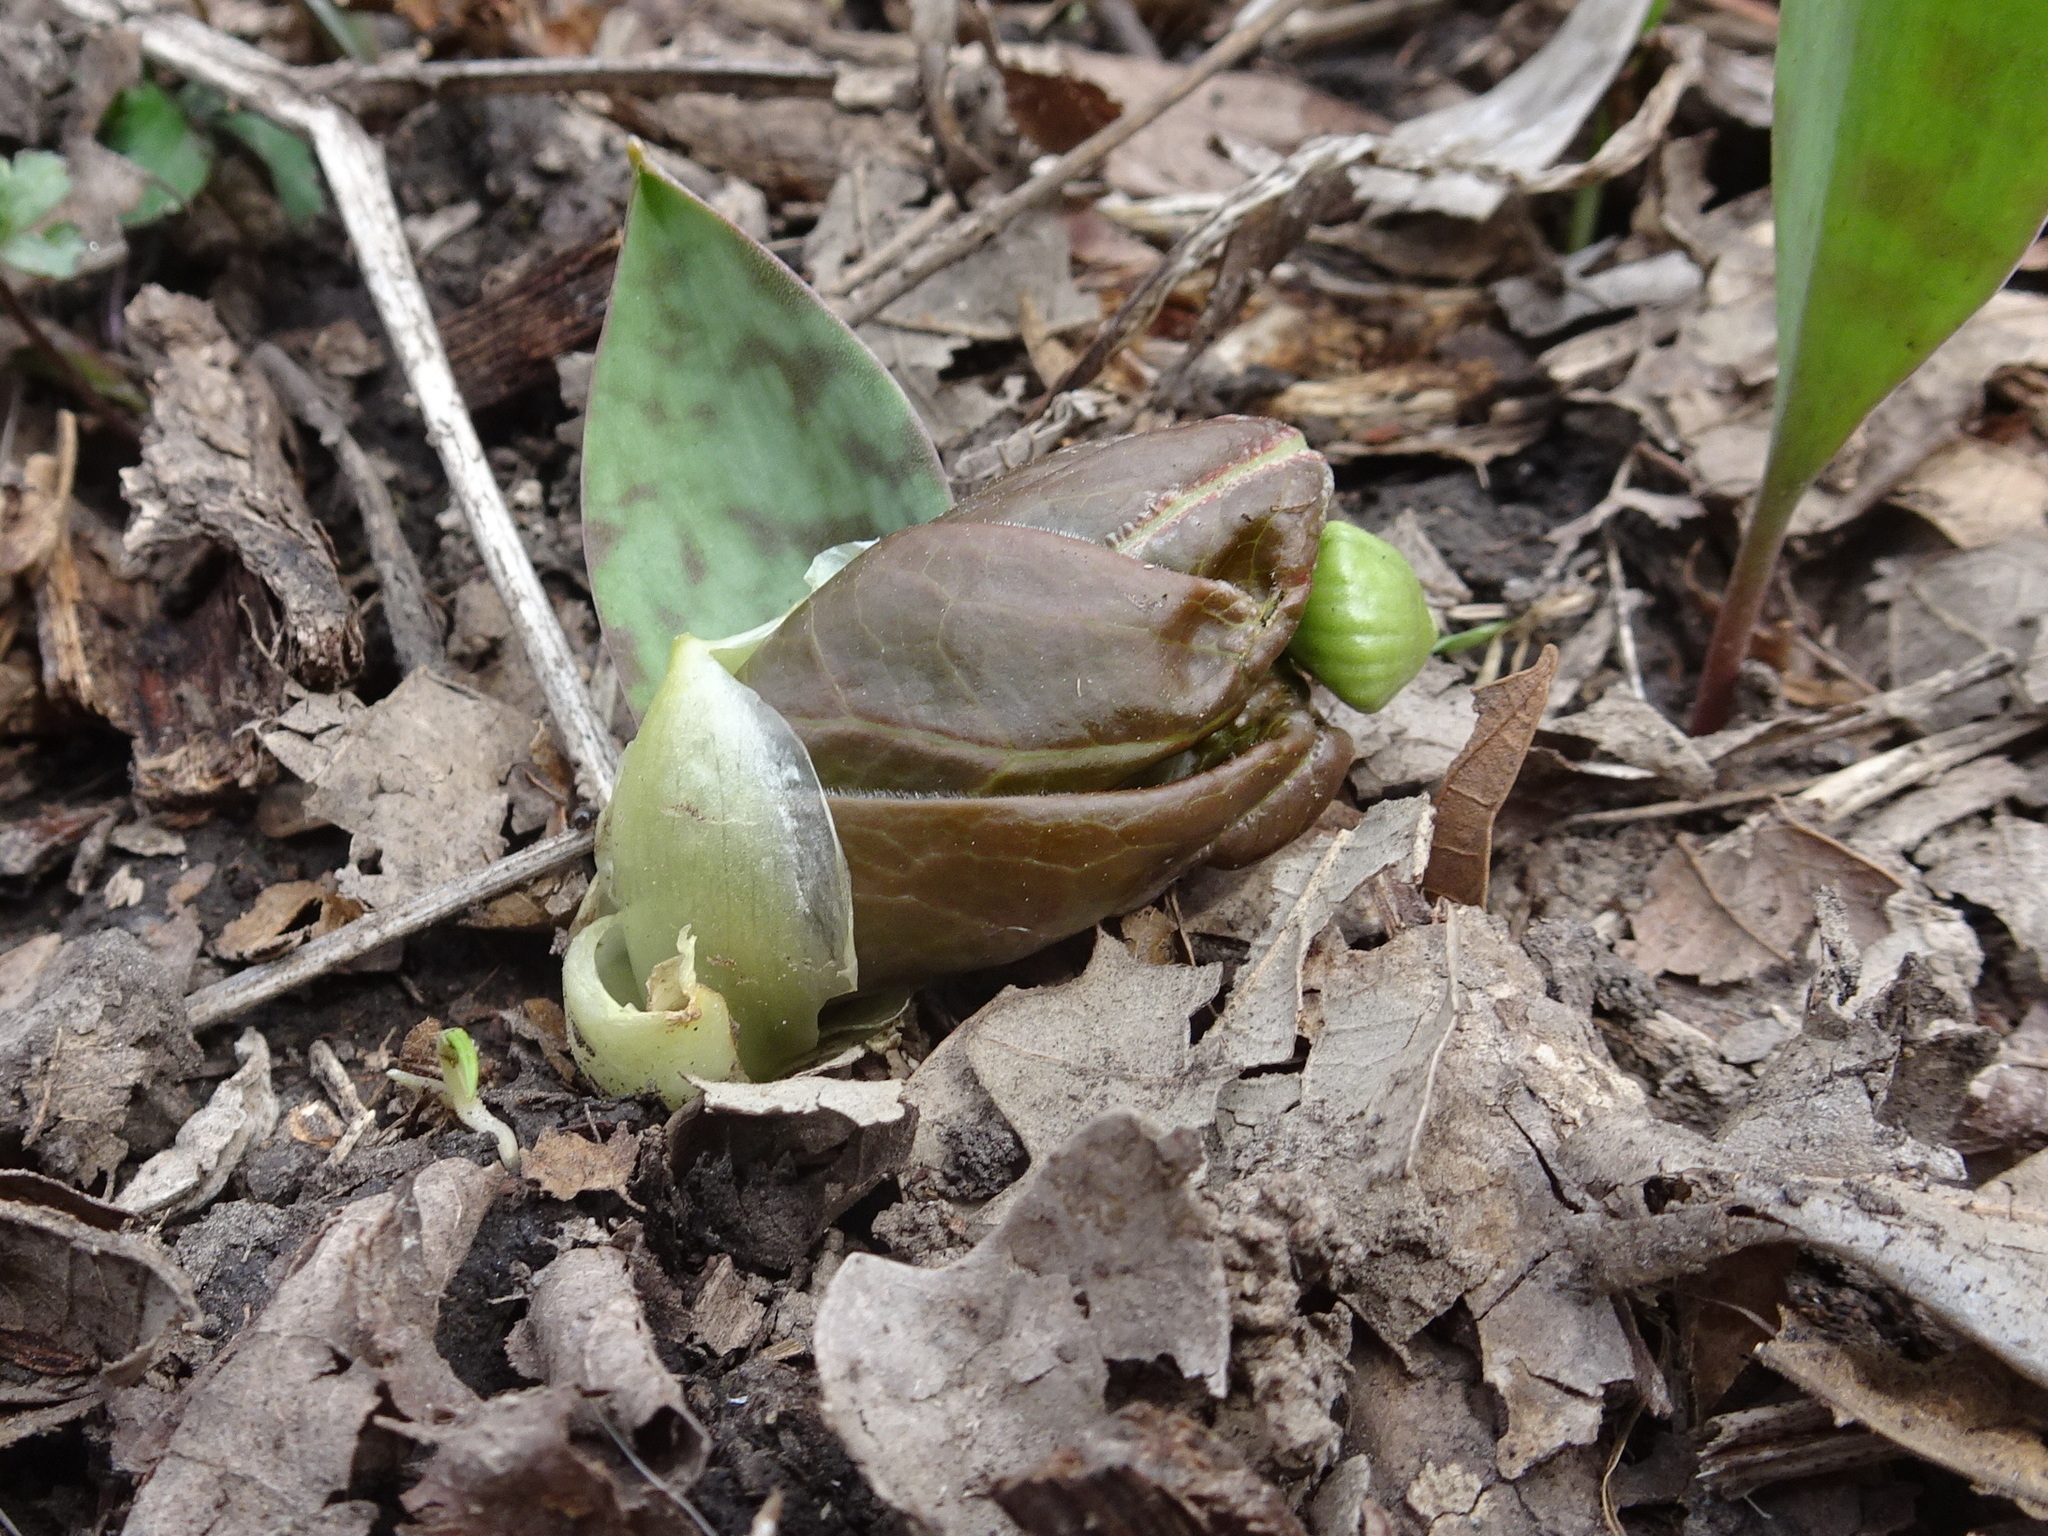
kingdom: Plantae
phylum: Tracheophyta
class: Magnoliopsida
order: Ranunculales
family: Berberidaceae
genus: Podophyllum
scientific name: Podophyllum peltatum
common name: Wild mandrake
